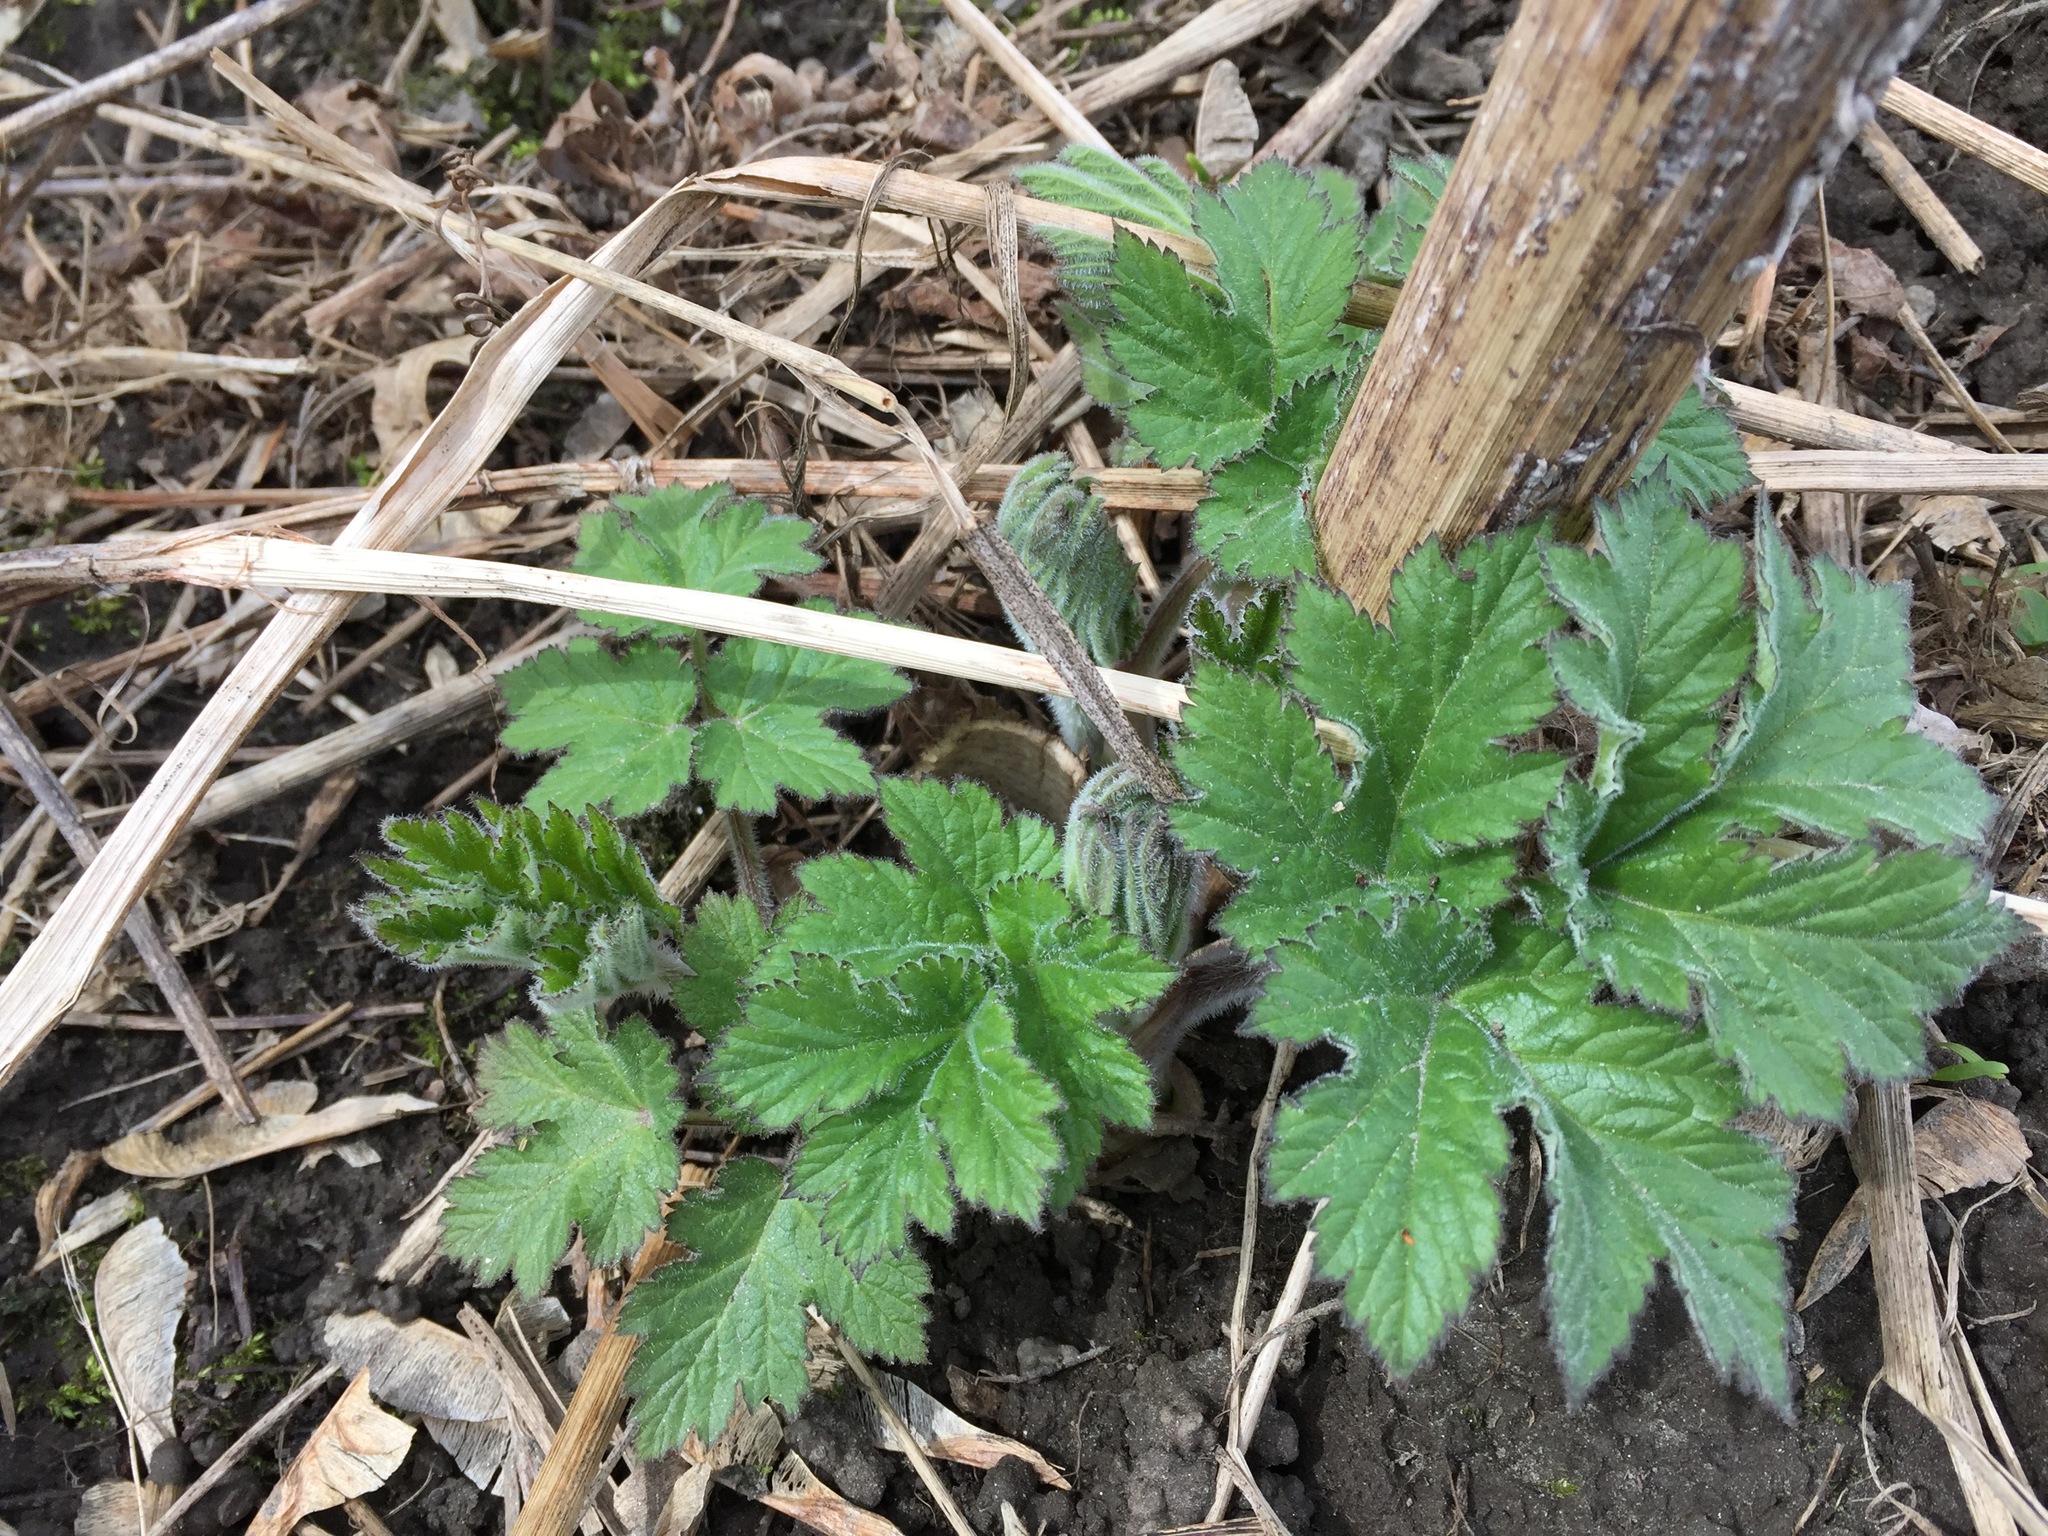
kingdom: Plantae
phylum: Tracheophyta
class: Magnoliopsida
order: Apiales
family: Apiaceae
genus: Heracleum
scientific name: Heracleum maximum
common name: American cow parsnip
